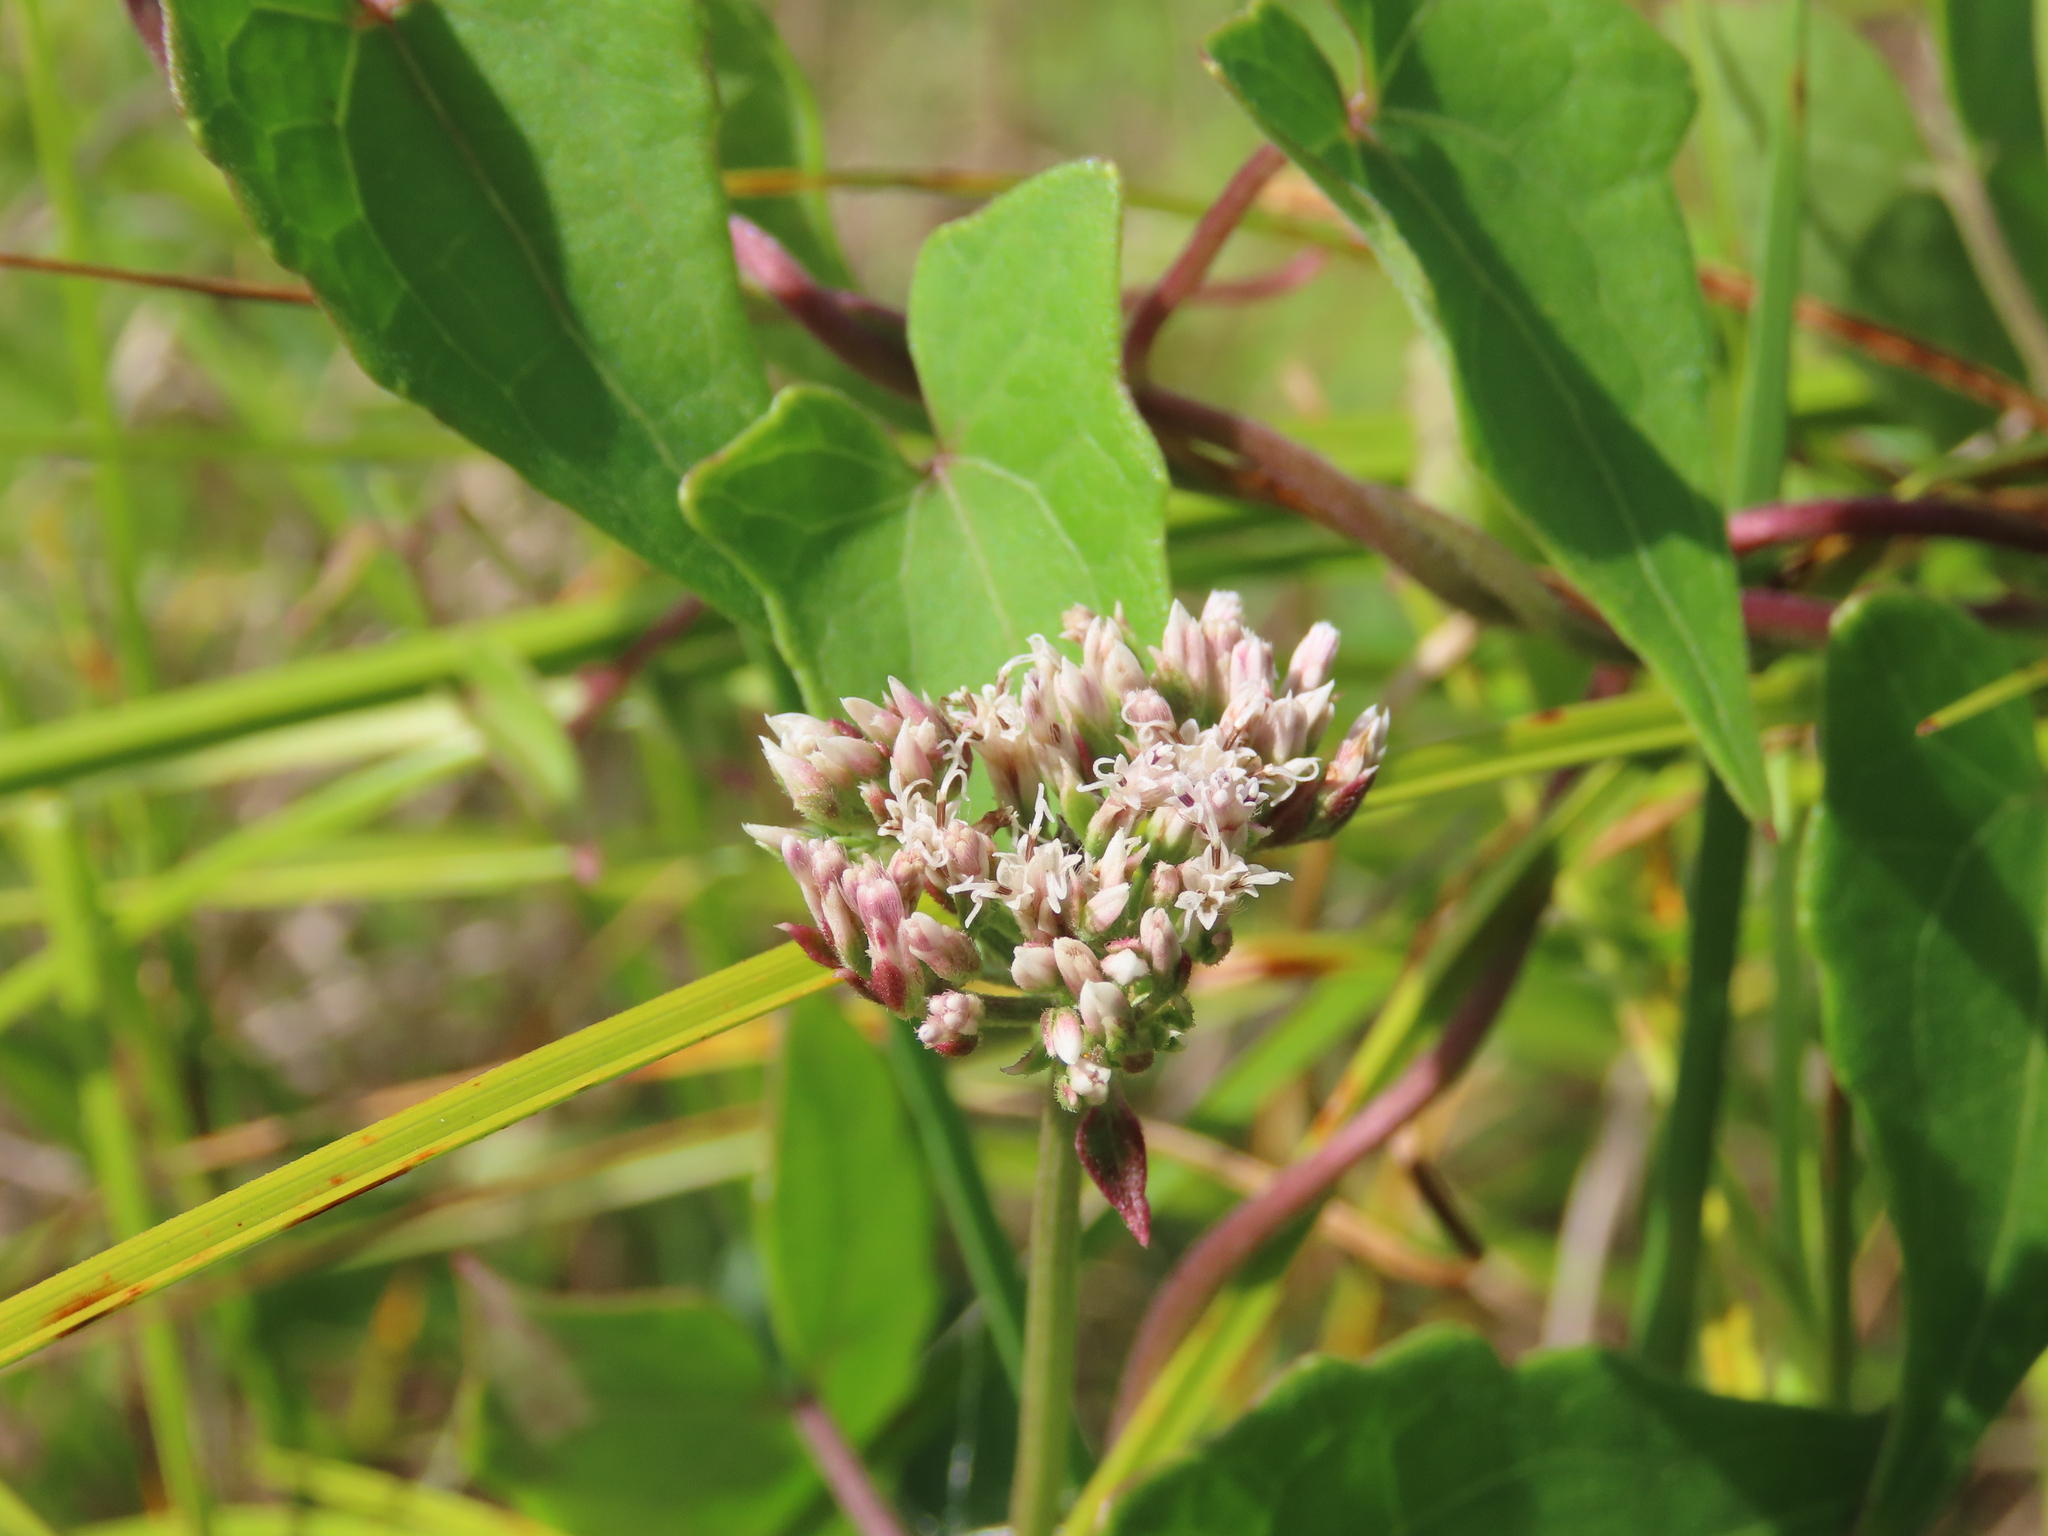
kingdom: Plantae
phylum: Tracheophyta
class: Magnoliopsida
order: Asterales
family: Asteraceae
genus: Mikania
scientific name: Mikania scandens
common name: Climbing hempvine
